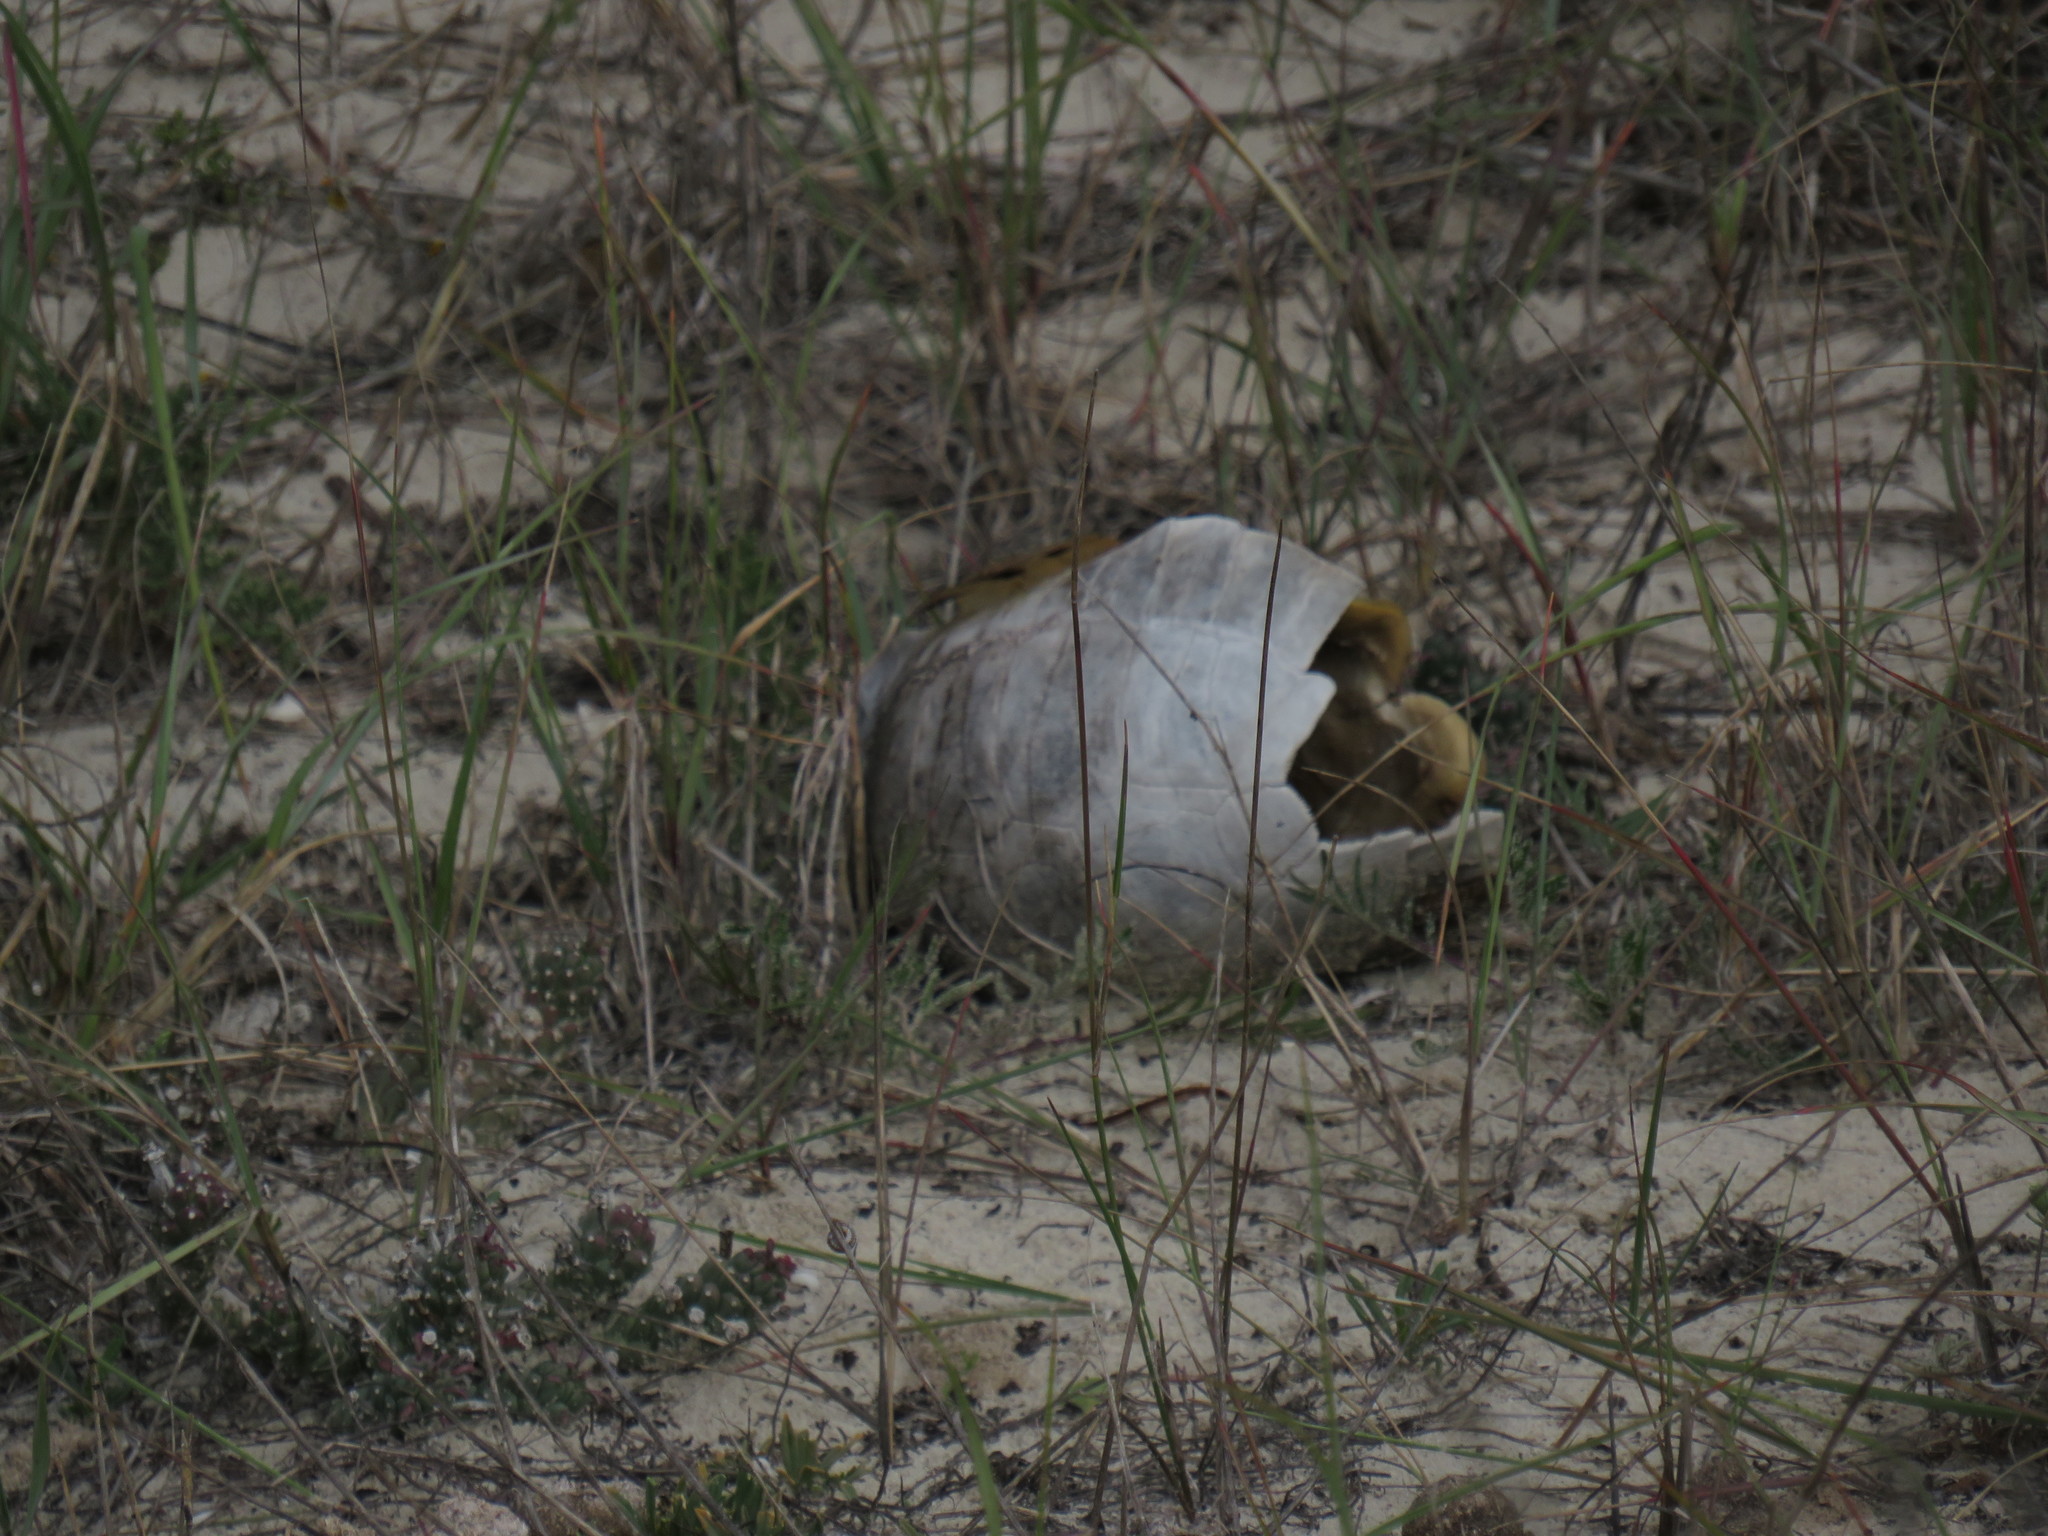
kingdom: Animalia
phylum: Chordata
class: Testudines
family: Testudinidae
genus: Chersina
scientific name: Chersina angulata
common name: South african bowsprit tortoise
